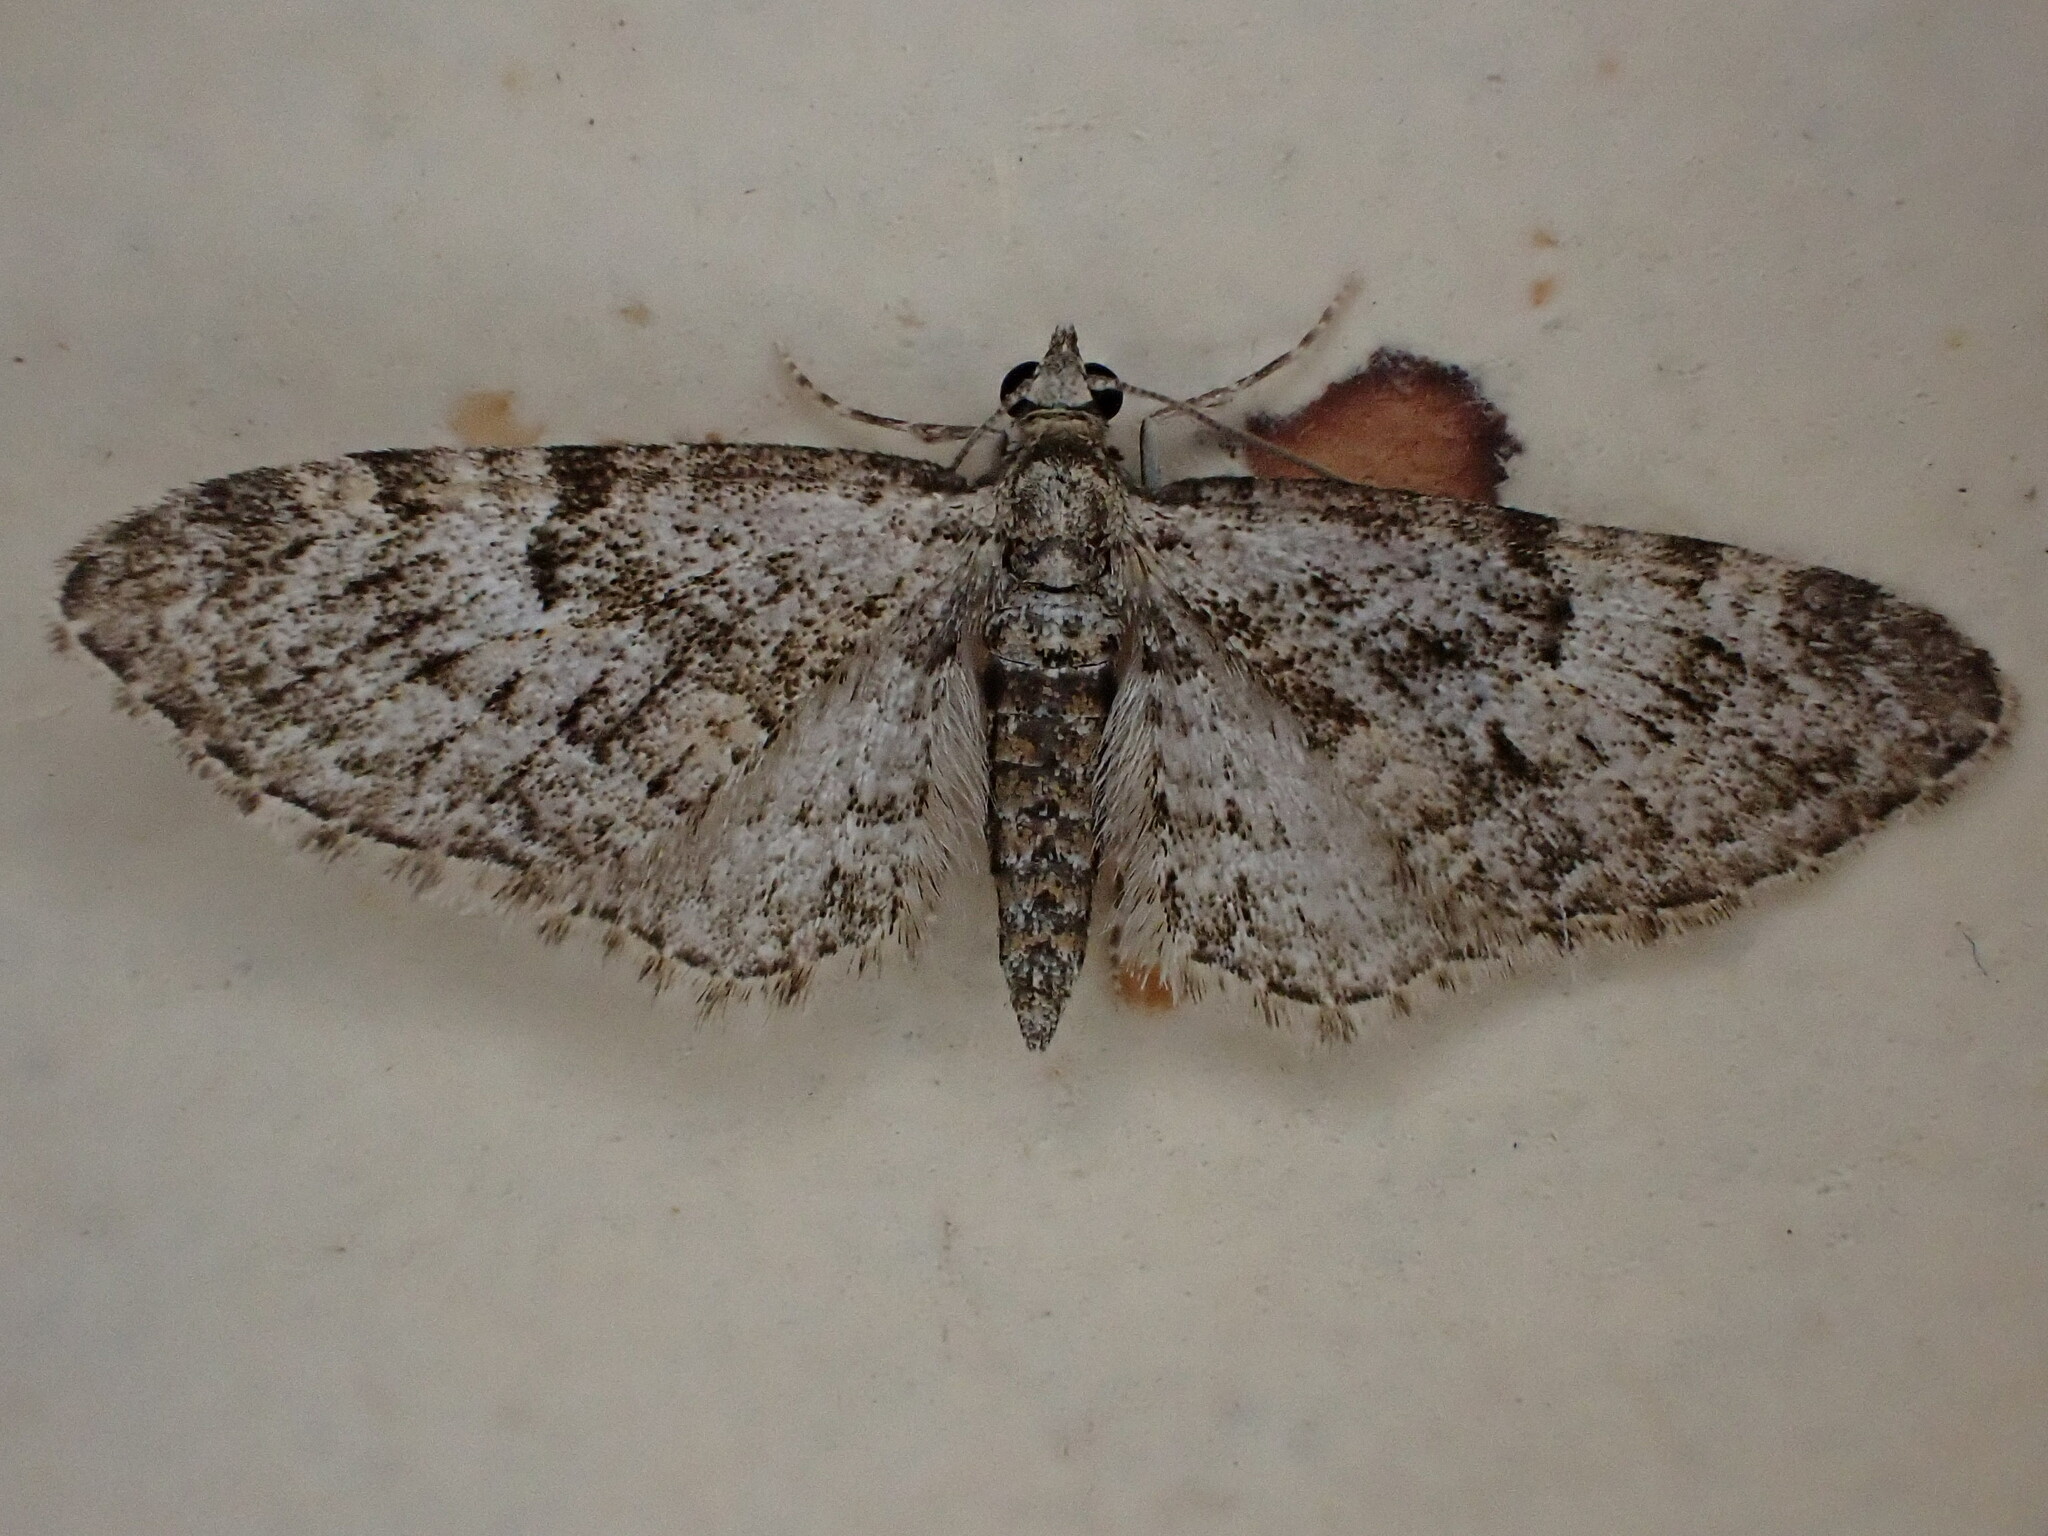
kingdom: Animalia
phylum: Arthropoda
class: Insecta
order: Lepidoptera
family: Geometridae
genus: Eupithecia
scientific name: Eupithecia dodoneata
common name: Oak-tree pug
